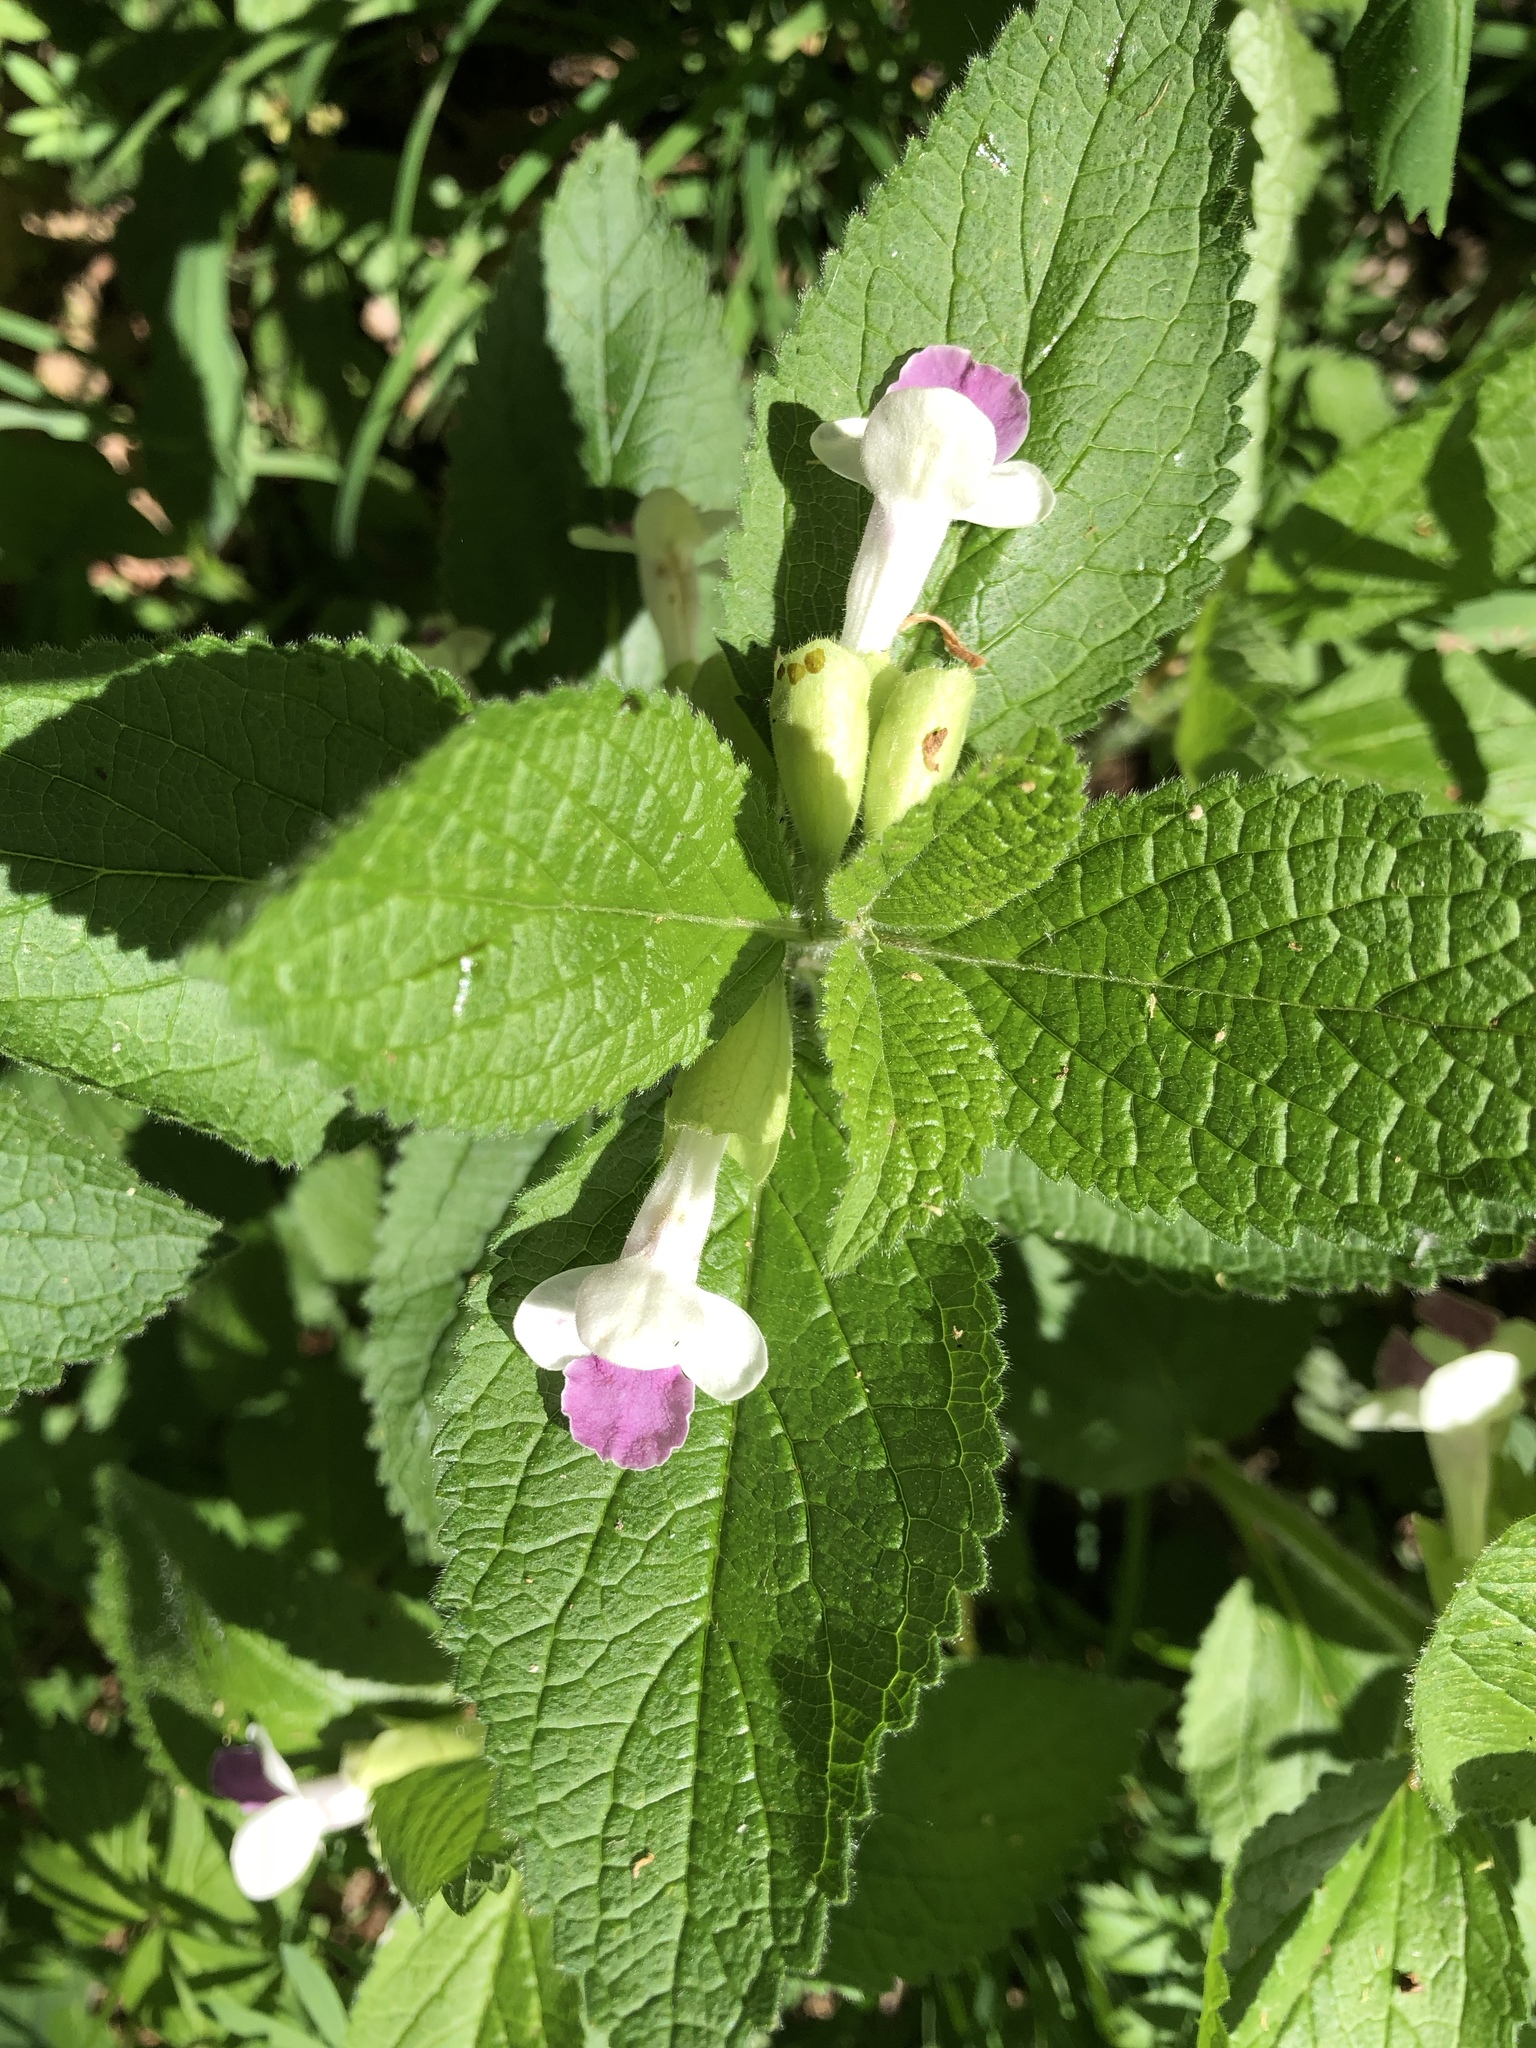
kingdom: Plantae
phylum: Tracheophyta
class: Magnoliopsida
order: Lamiales
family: Lamiaceae
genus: Melittis
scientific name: Melittis melissophyllum
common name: Bastard balm
